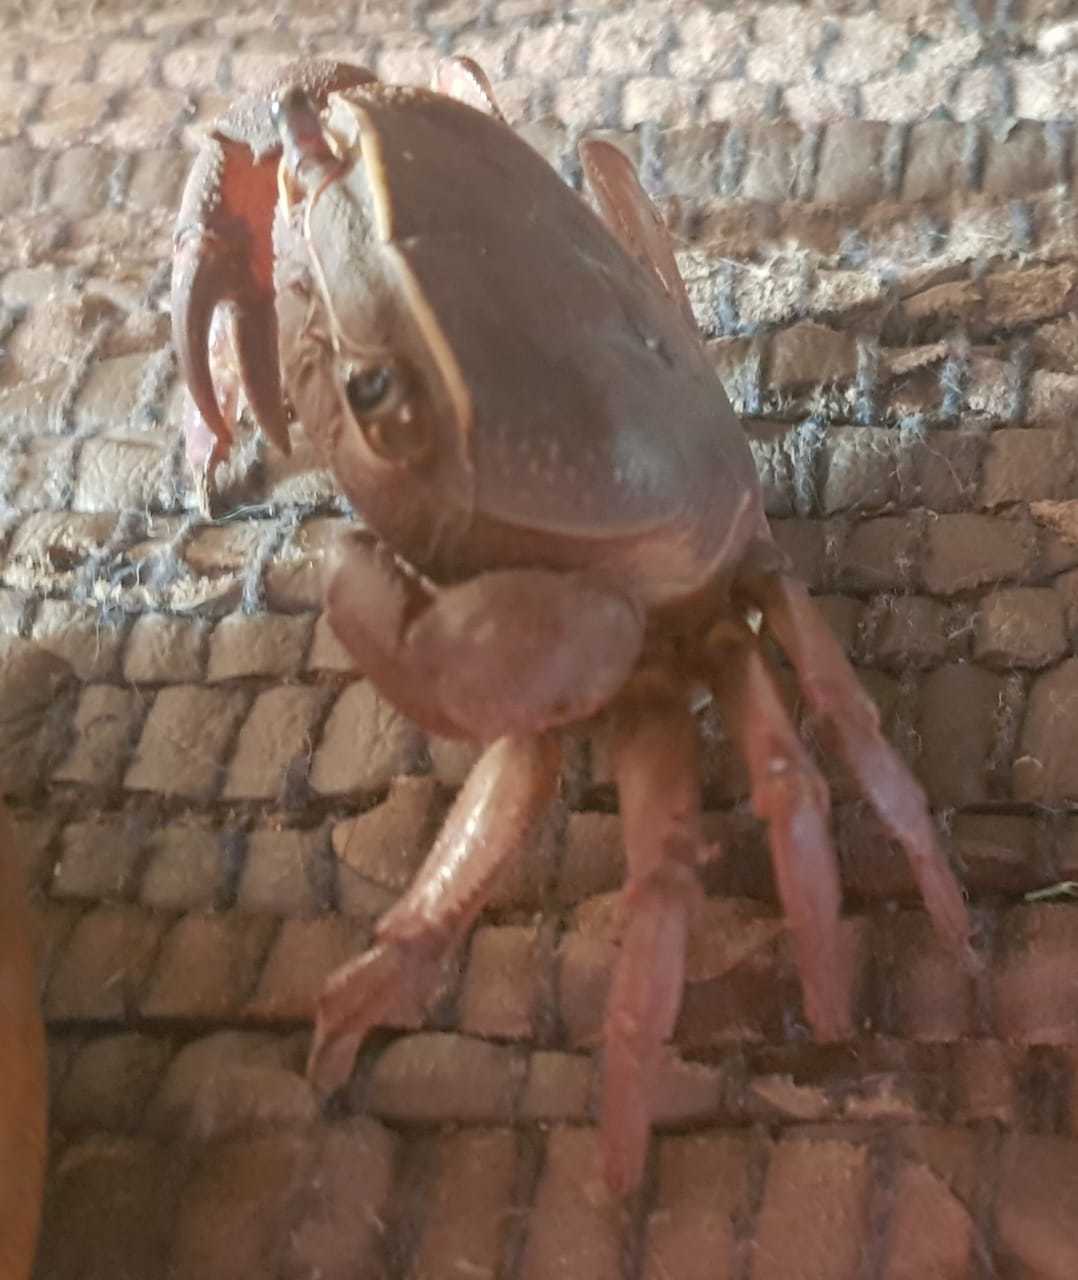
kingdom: Animalia
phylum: Arthropoda
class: Malacostraca
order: Decapoda
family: Potamonautidae
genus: Potamonautes
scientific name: Potamonautes sidneyi
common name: Natal river crab
